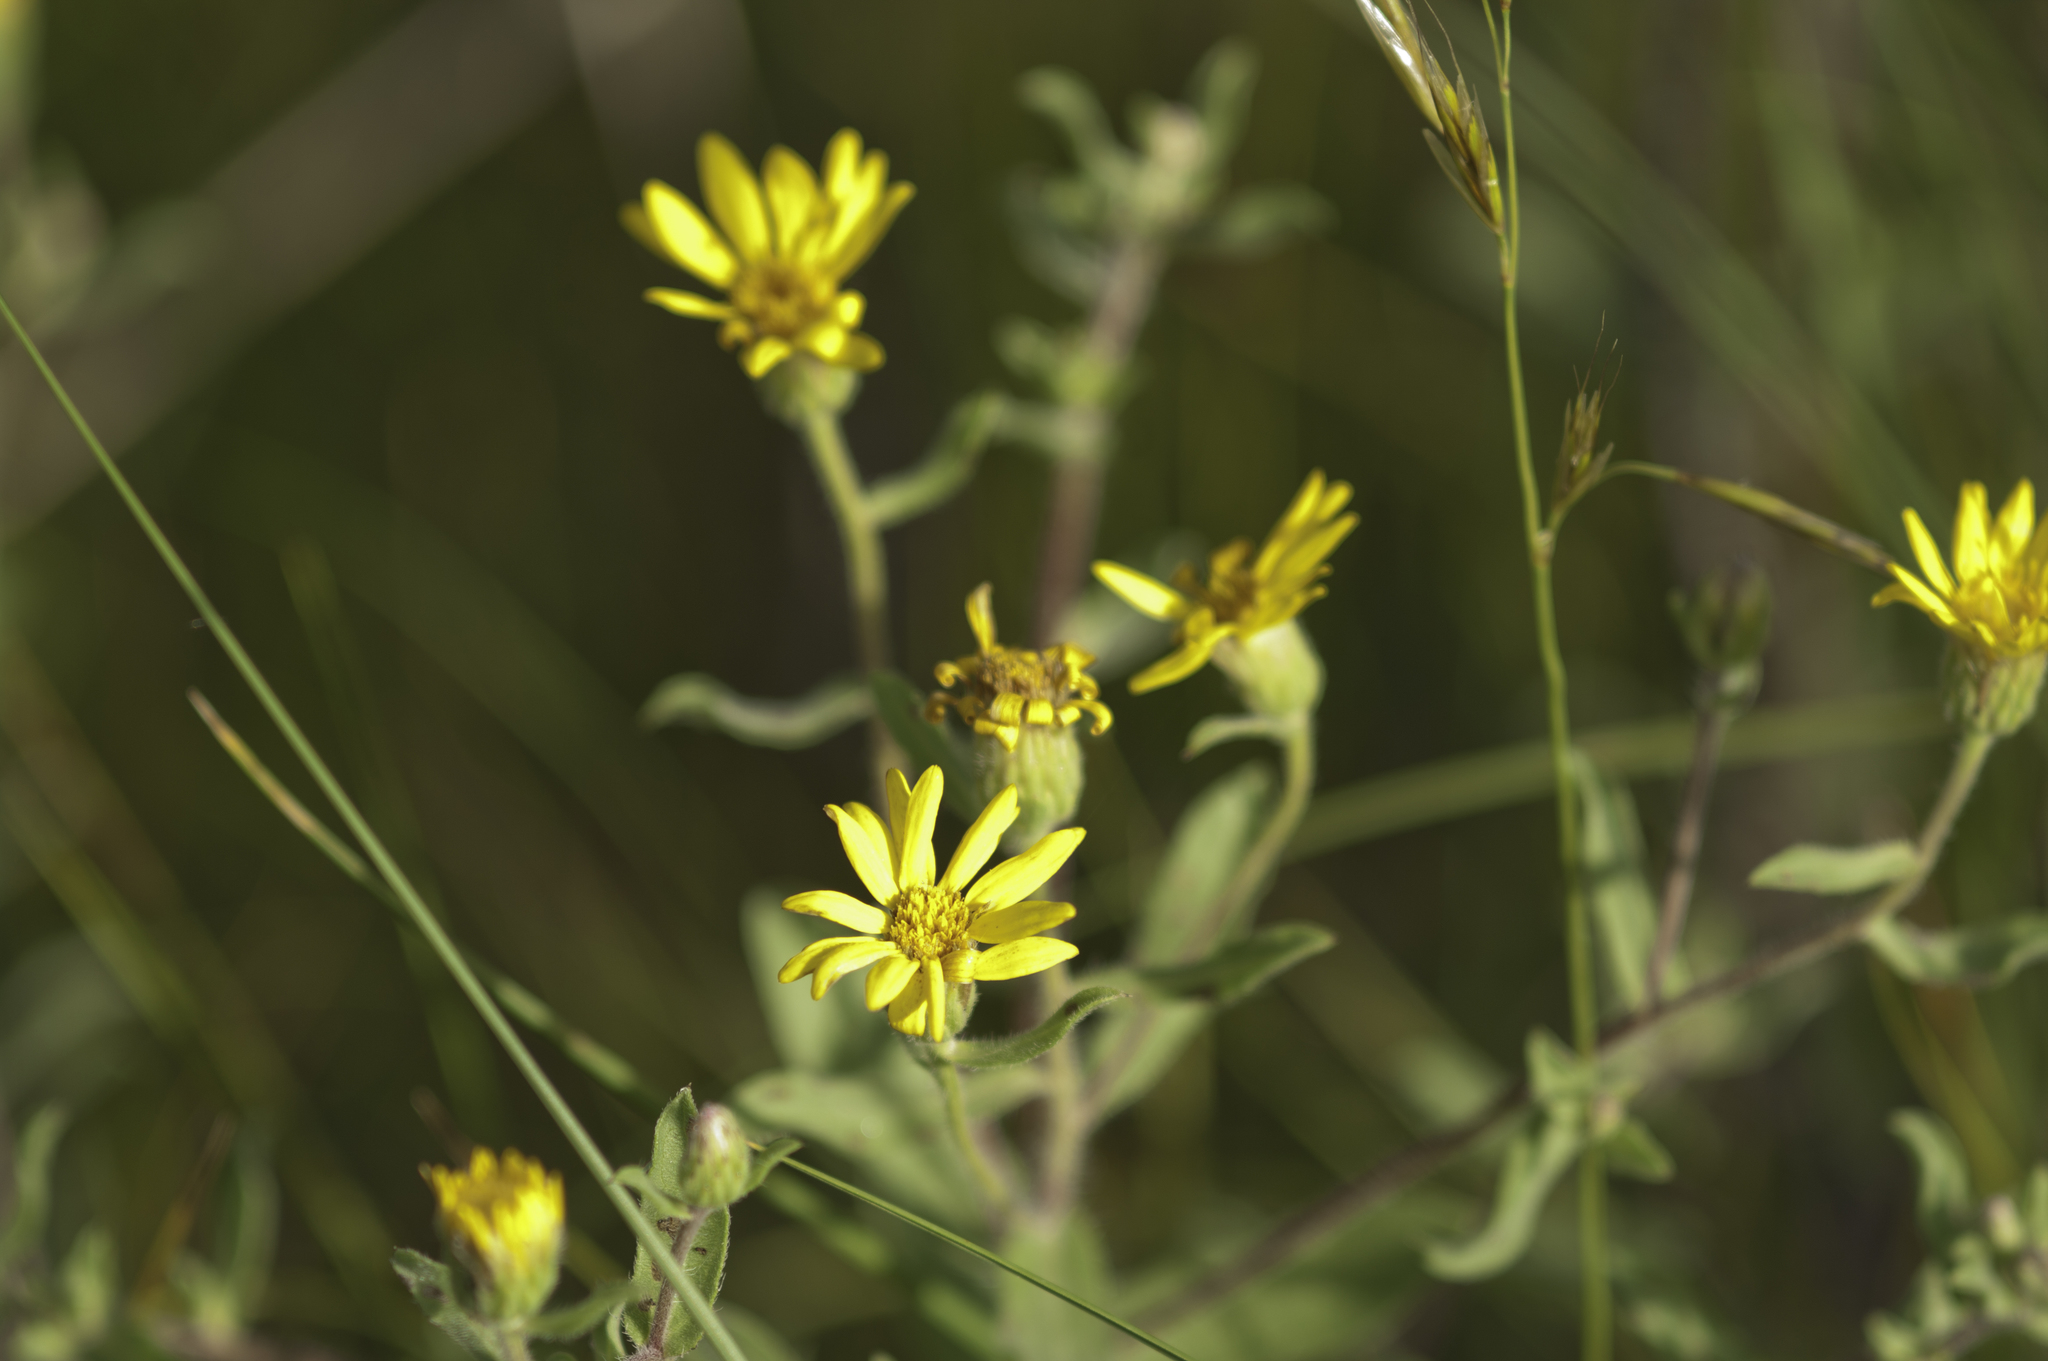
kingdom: Plantae
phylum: Tracheophyta
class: Magnoliopsida
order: Asterales
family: Asteraceae
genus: Heterotheca
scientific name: Heterotheca villosa
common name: Hairy false goldenaster
